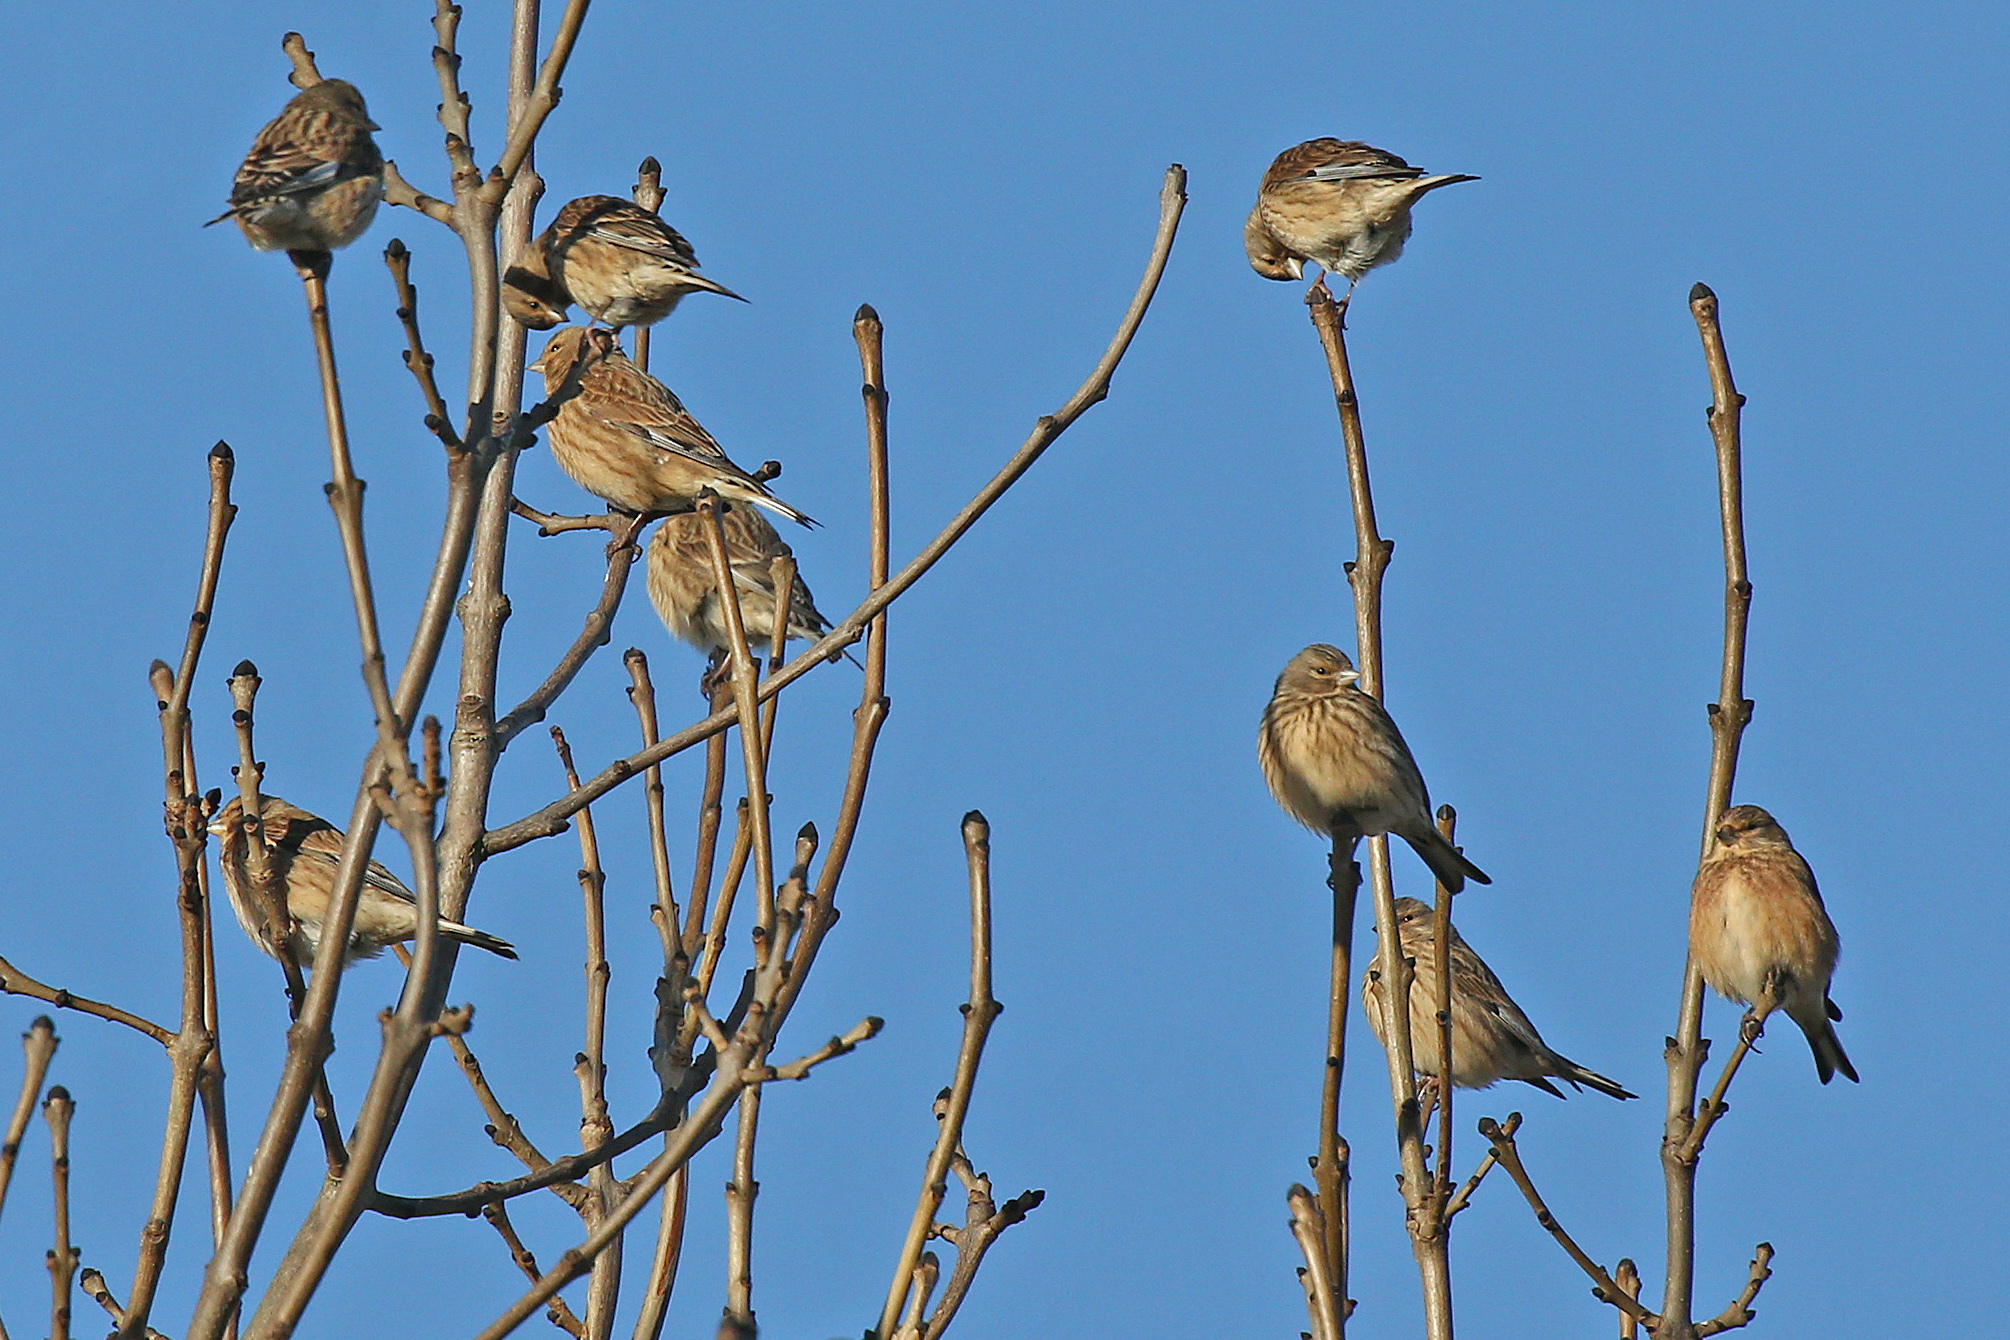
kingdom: Animalia
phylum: Chordata
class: Aves
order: Passeriformes
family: Fringillidae
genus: Linaria
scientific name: Linaria cannabina
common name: Common linnet
